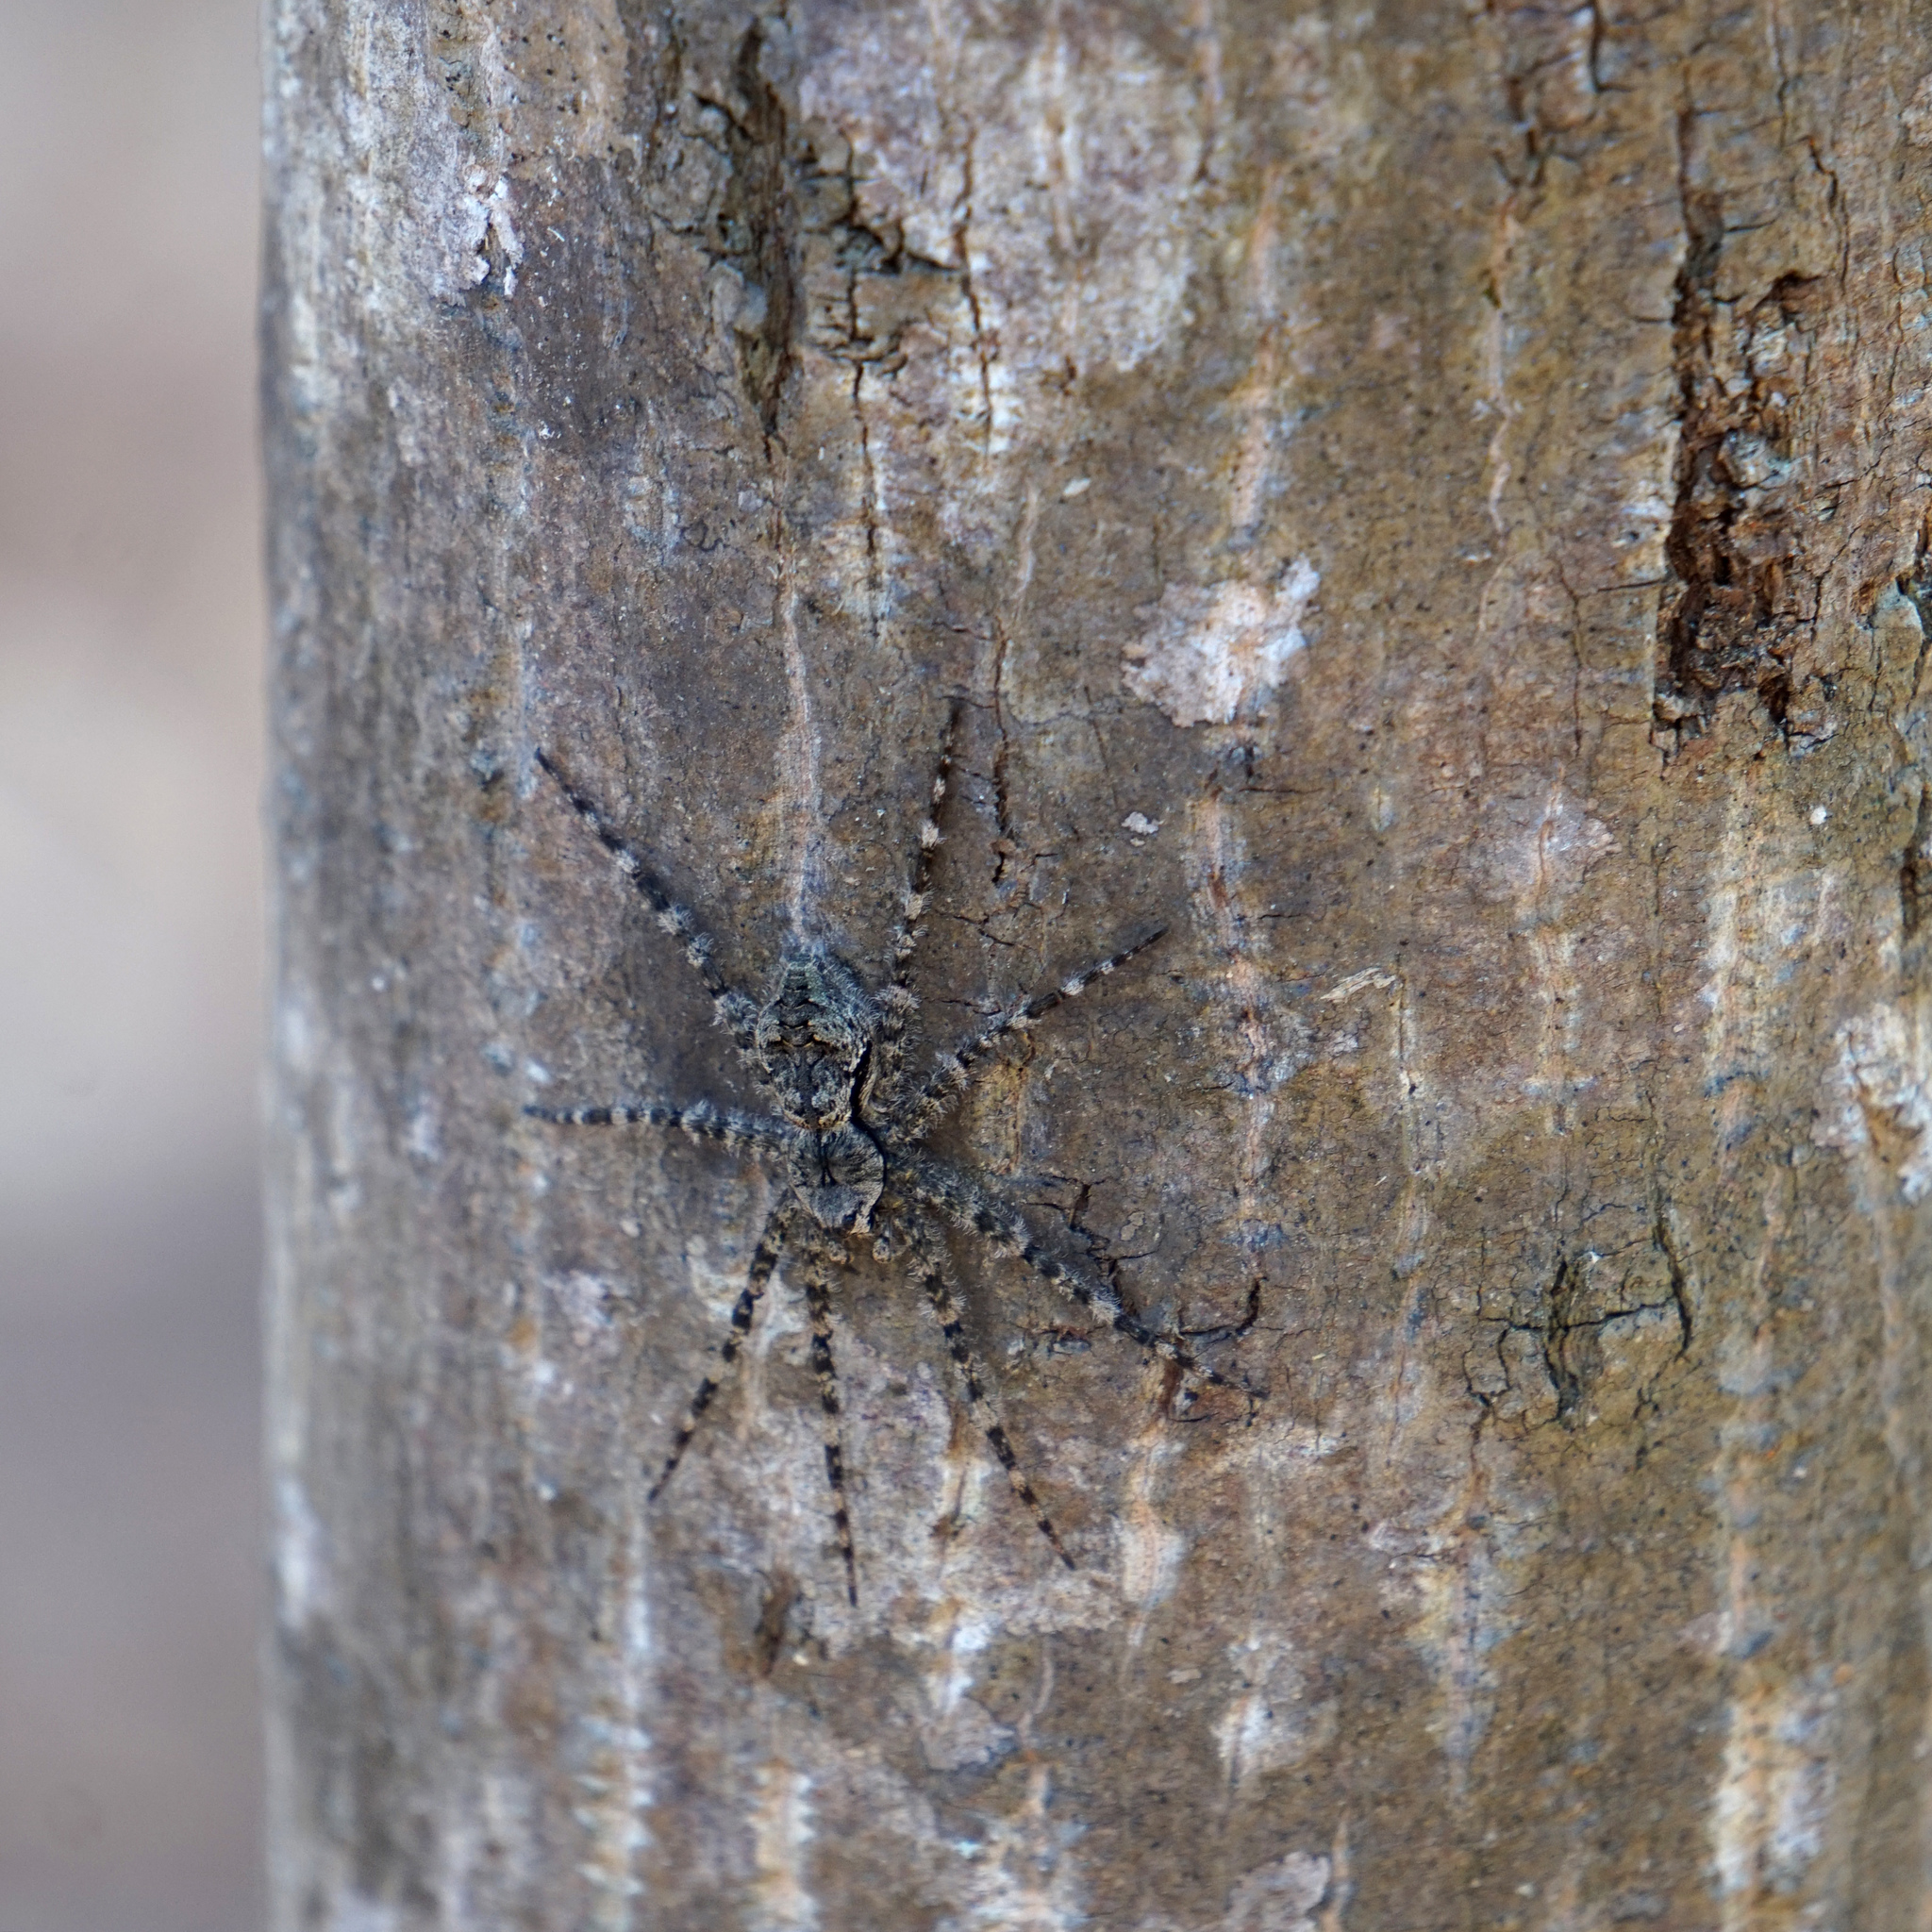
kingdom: Animalia
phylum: Arthropoda
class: Arachnida
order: Araneae
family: Pisauridae
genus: Dolomedes
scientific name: Dolomedes albineus
